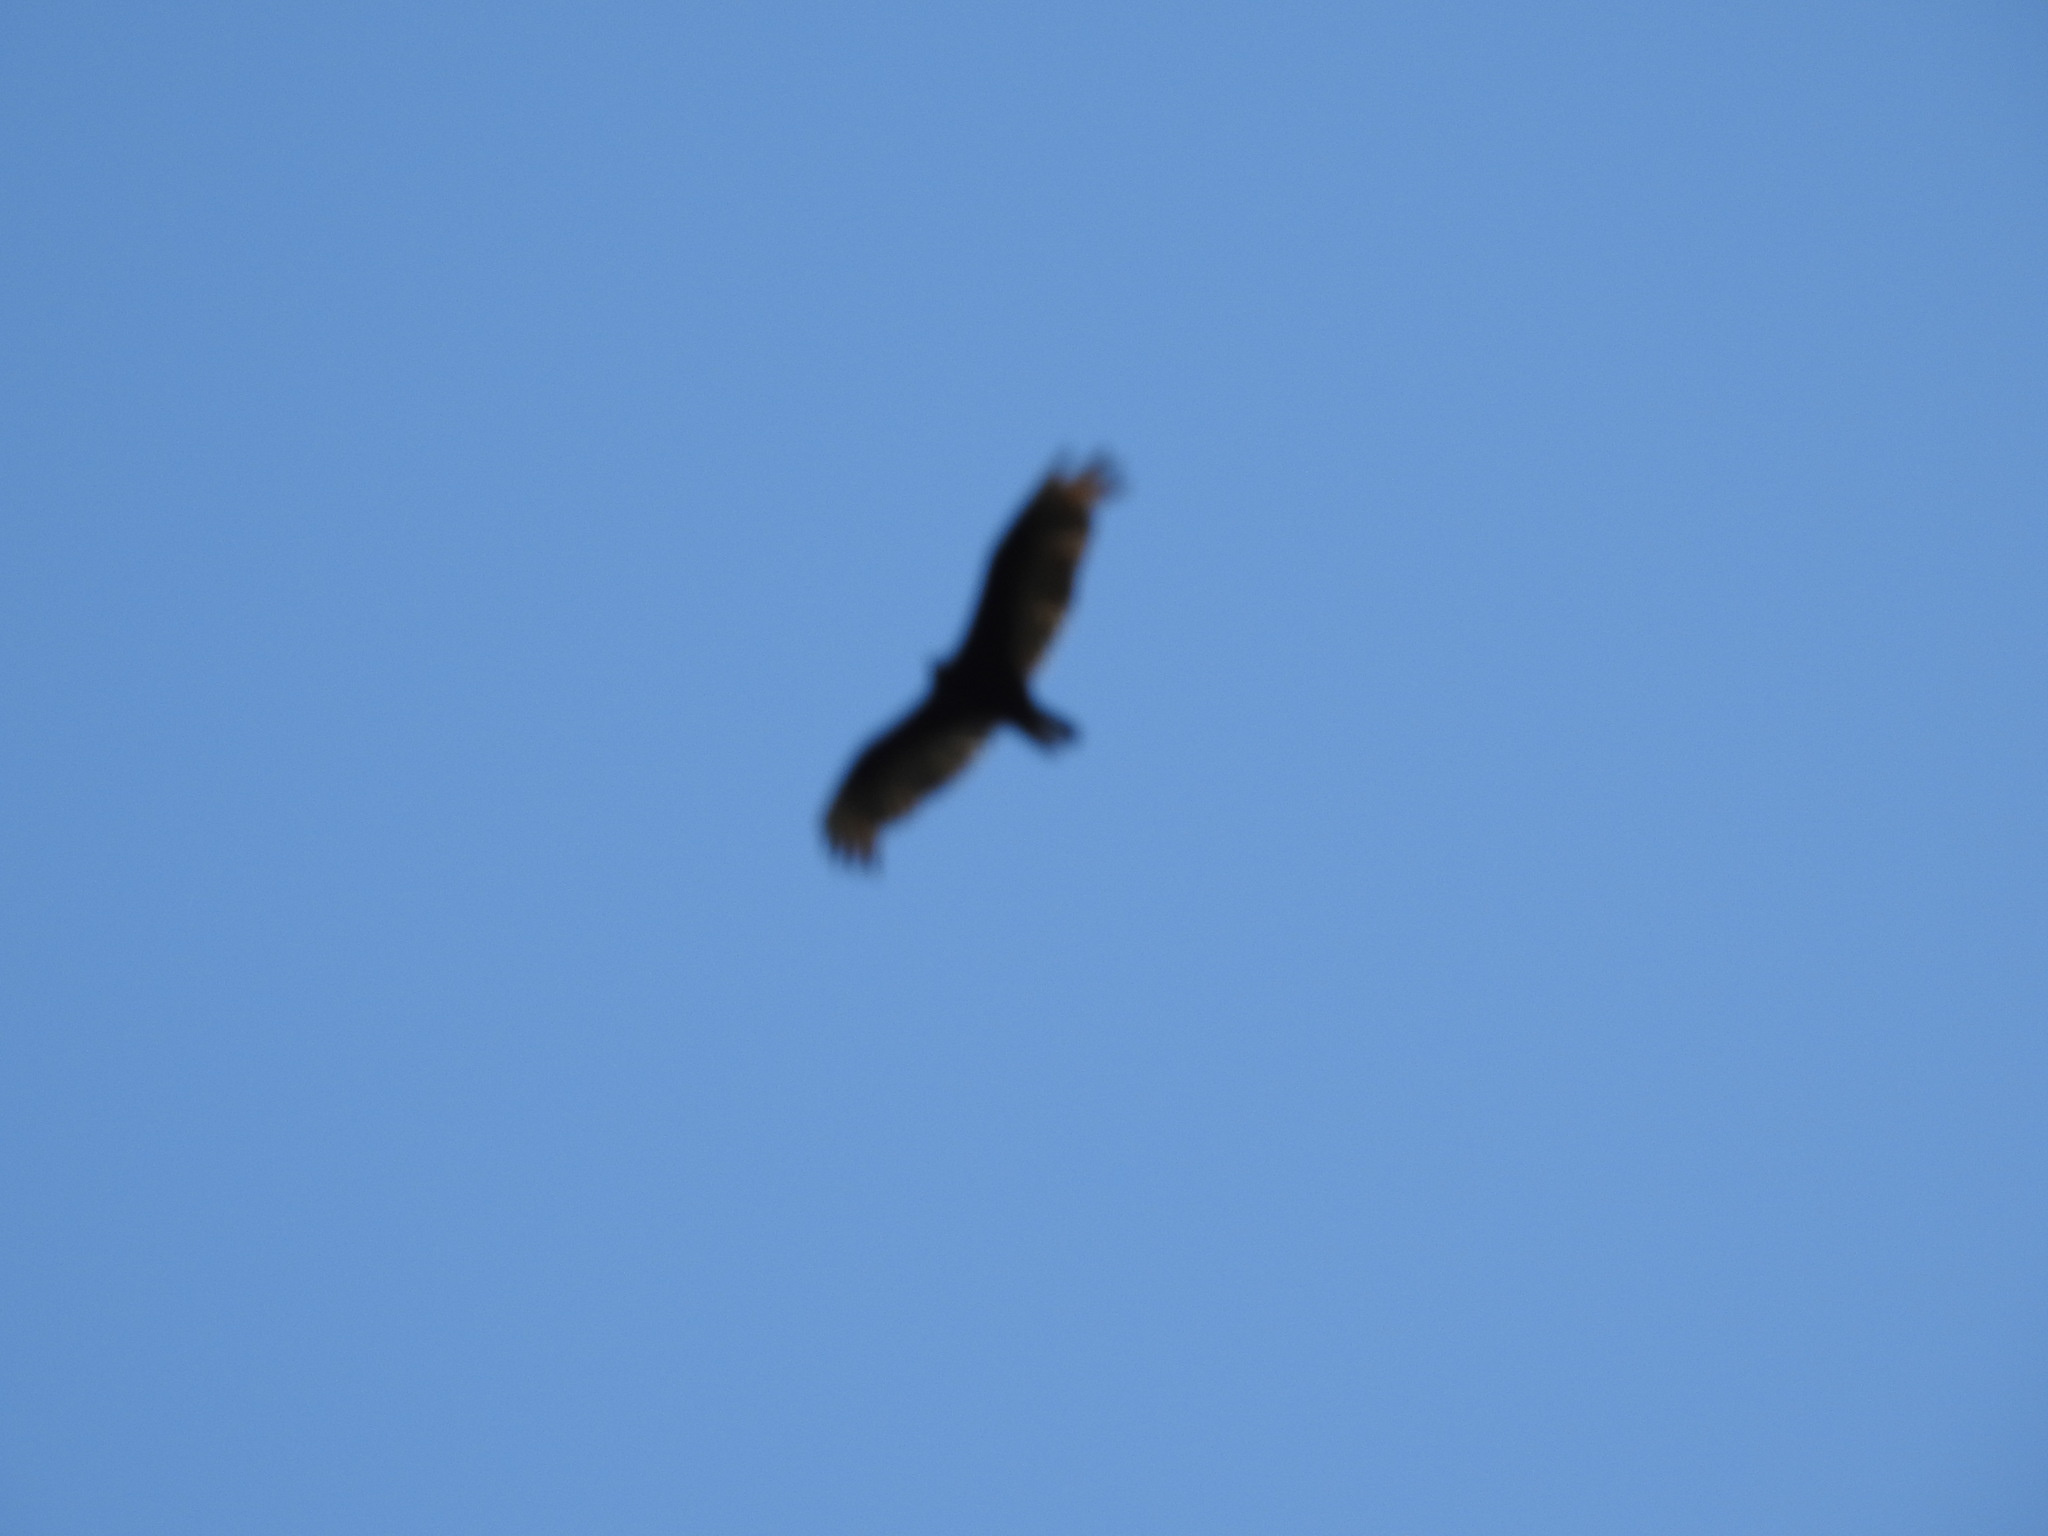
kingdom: Animalia
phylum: Chordata
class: Aves
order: Accipitriformes
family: Cathartidae
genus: Cathartes
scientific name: Cathartes aura
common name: Turkey vulture
